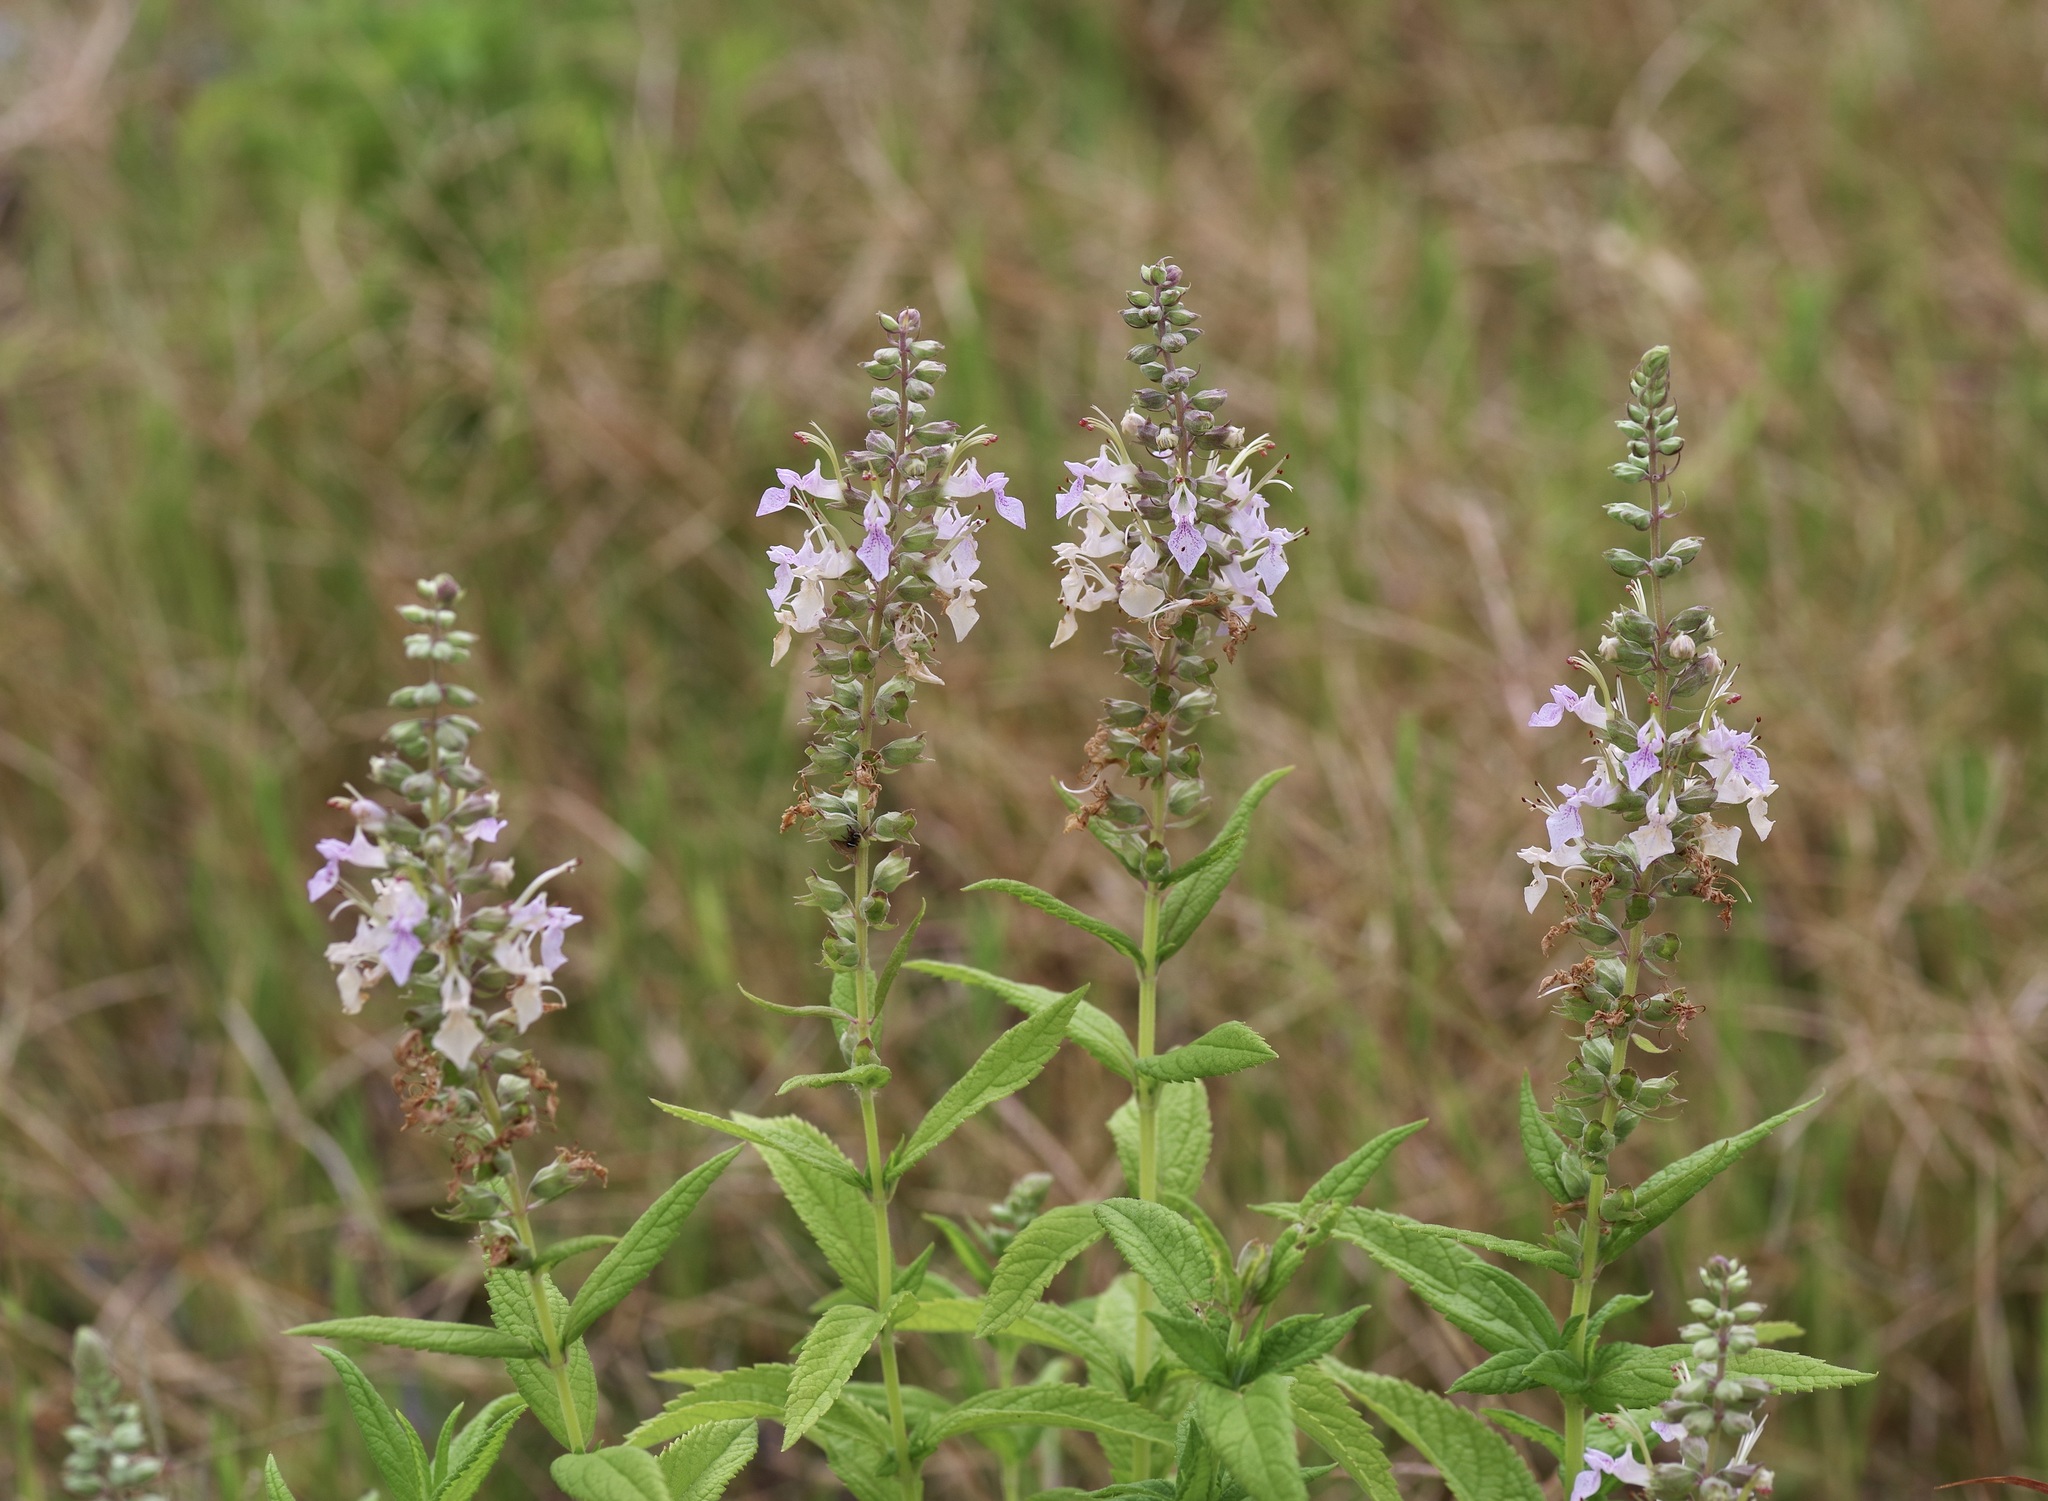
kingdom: Plantae
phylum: Tracheophyta
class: Magnoliopsida
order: Lamiales
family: Lamiaceae
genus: Teucrium
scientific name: Teucrium canadense
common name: American germander
